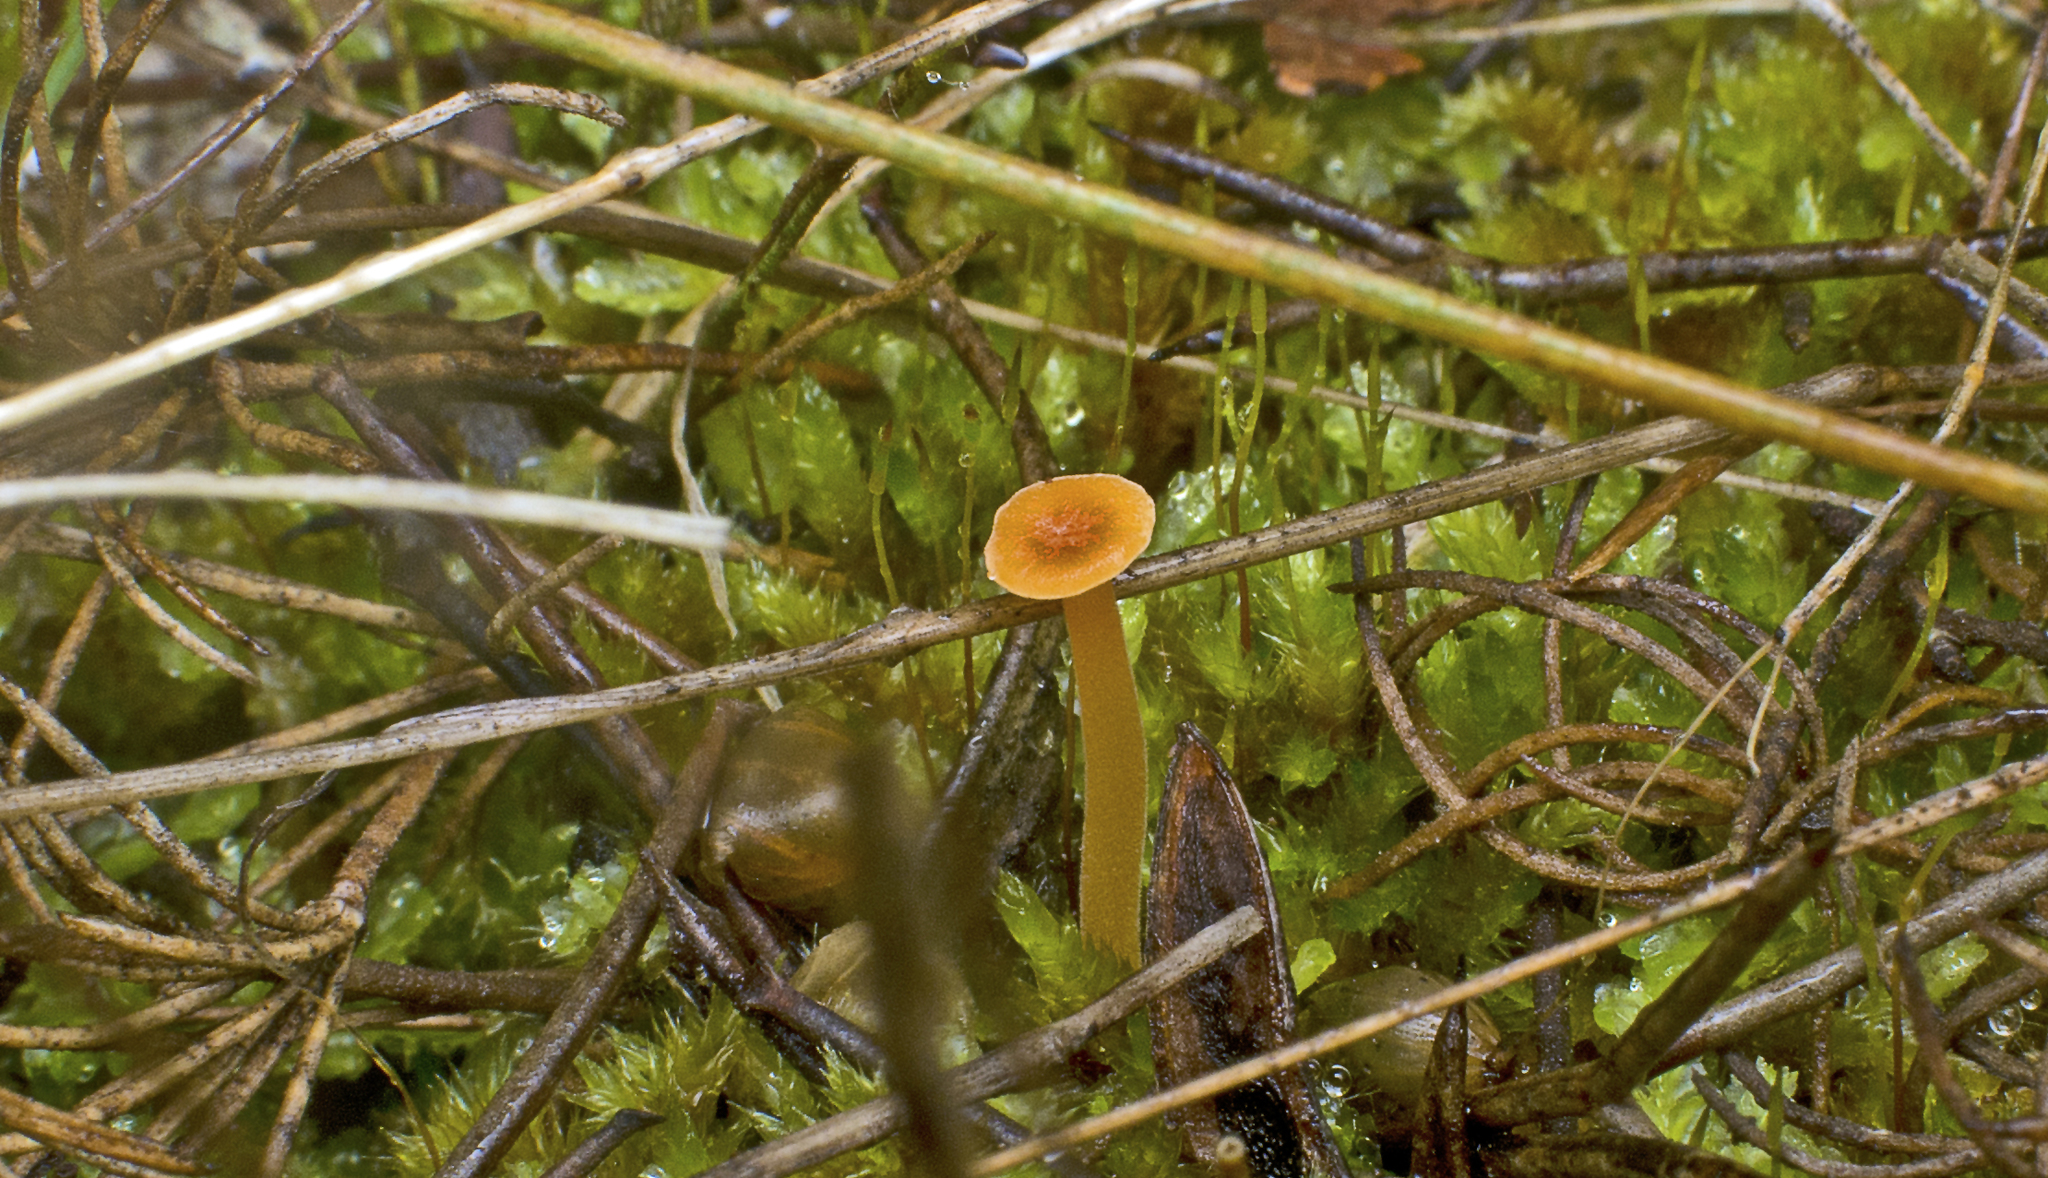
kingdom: Fungi
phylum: Basidiomycota
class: Agaricomycetes
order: Hymenochaetales
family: Rickenellaceae
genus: Rickenella
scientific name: Rickenella fibula
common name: Orange mosscap
